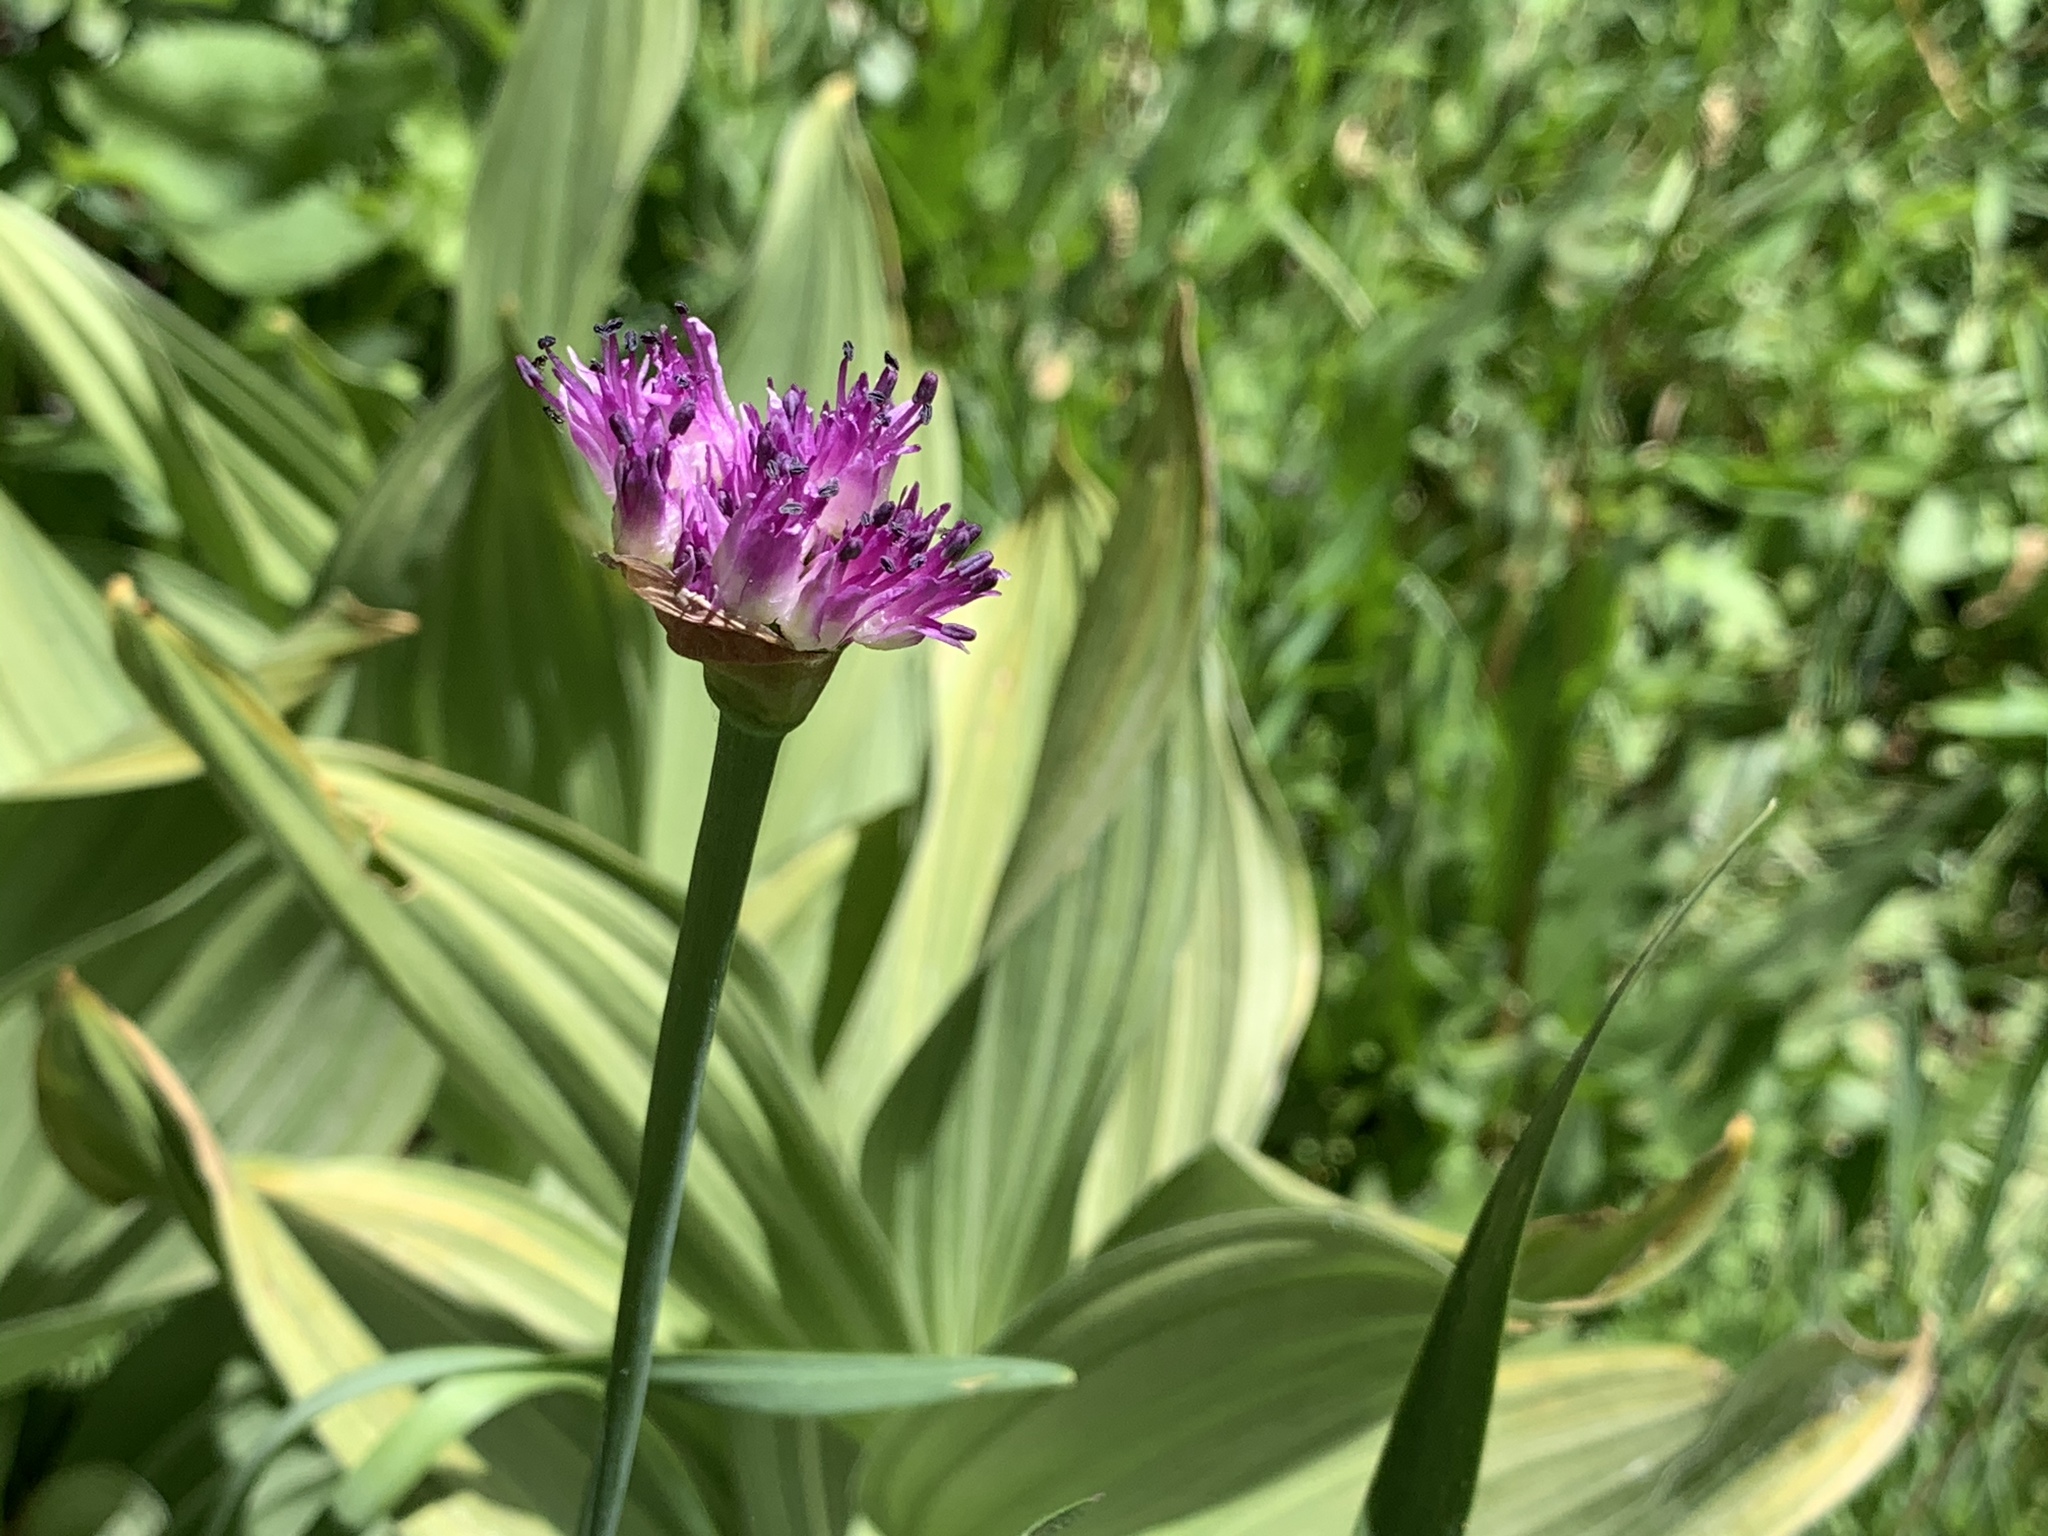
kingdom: Plantae
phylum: Tracheophyta
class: Liliopsida
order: Asparagales
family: Amaryllidaceae
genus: Allium
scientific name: Allium validum
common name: Pacific mountain onion
